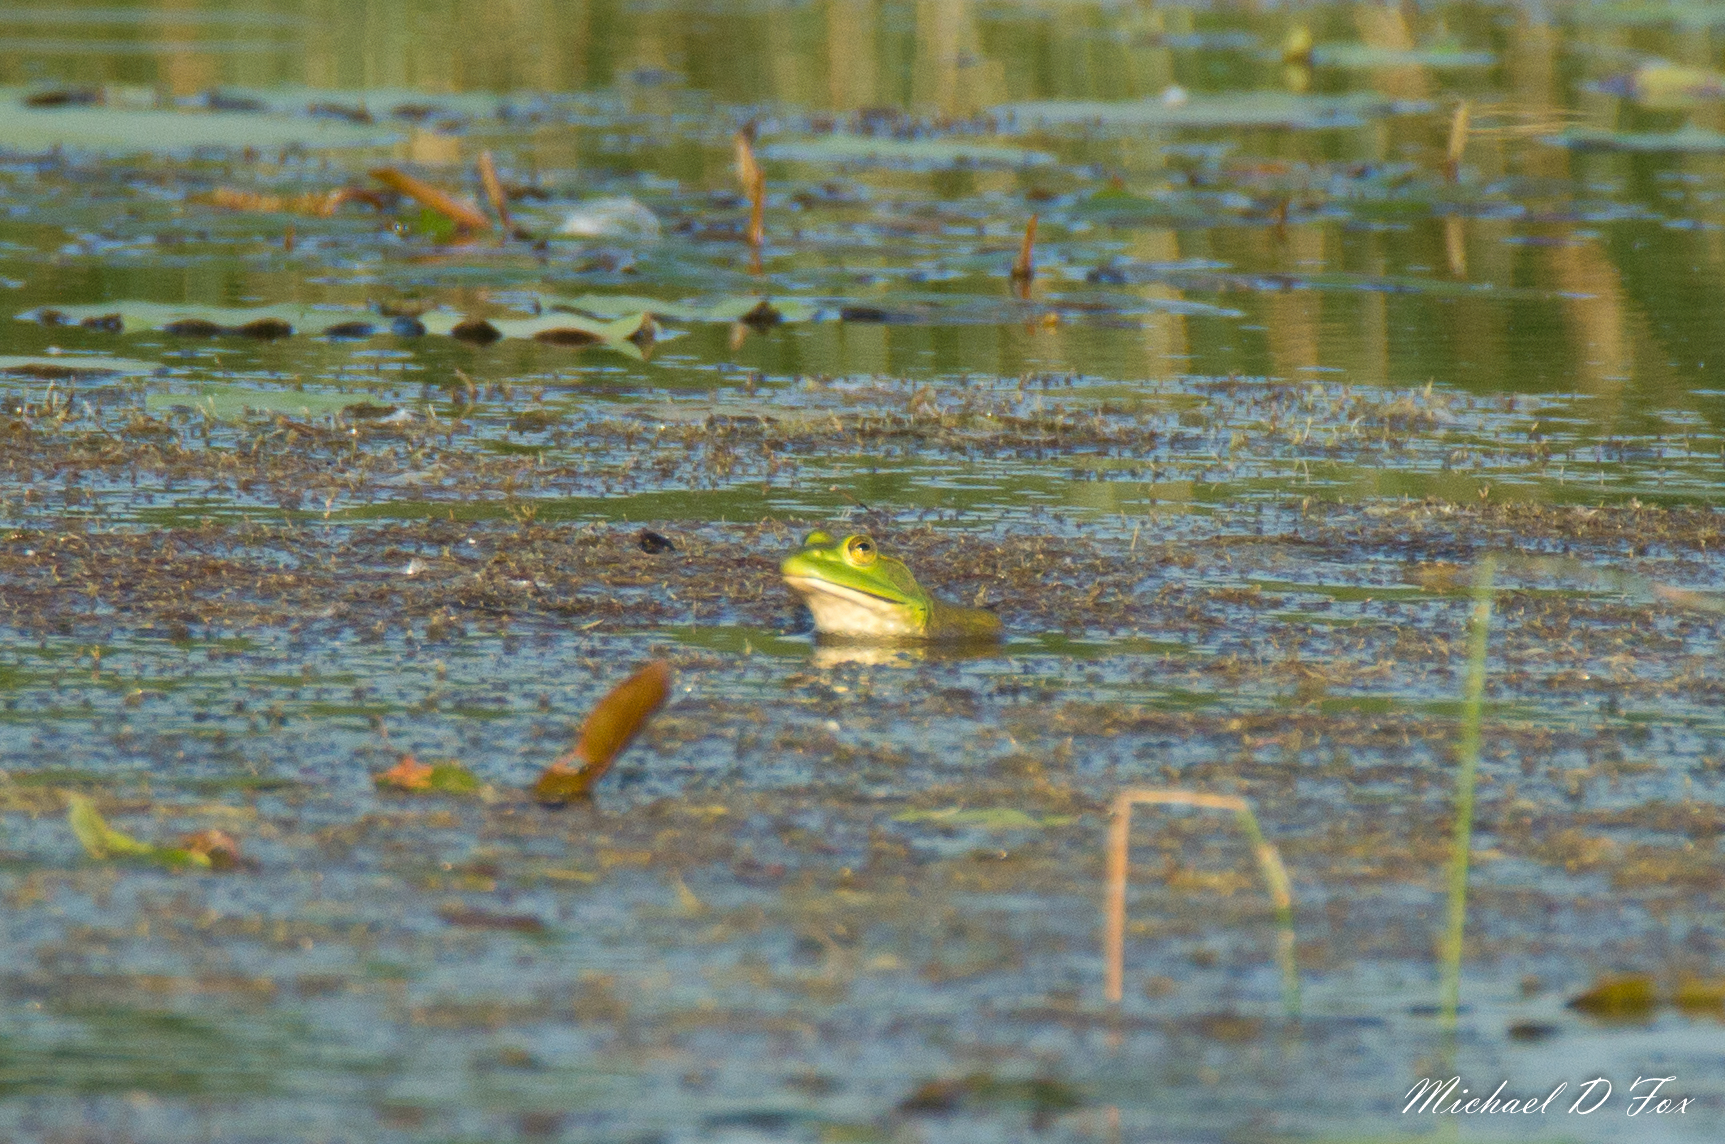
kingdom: Animalia
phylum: Chordata
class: Amphibia
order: Anura
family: Ranidae
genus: Lithobates
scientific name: Lithobates catesbeianus
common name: American bullfrog
